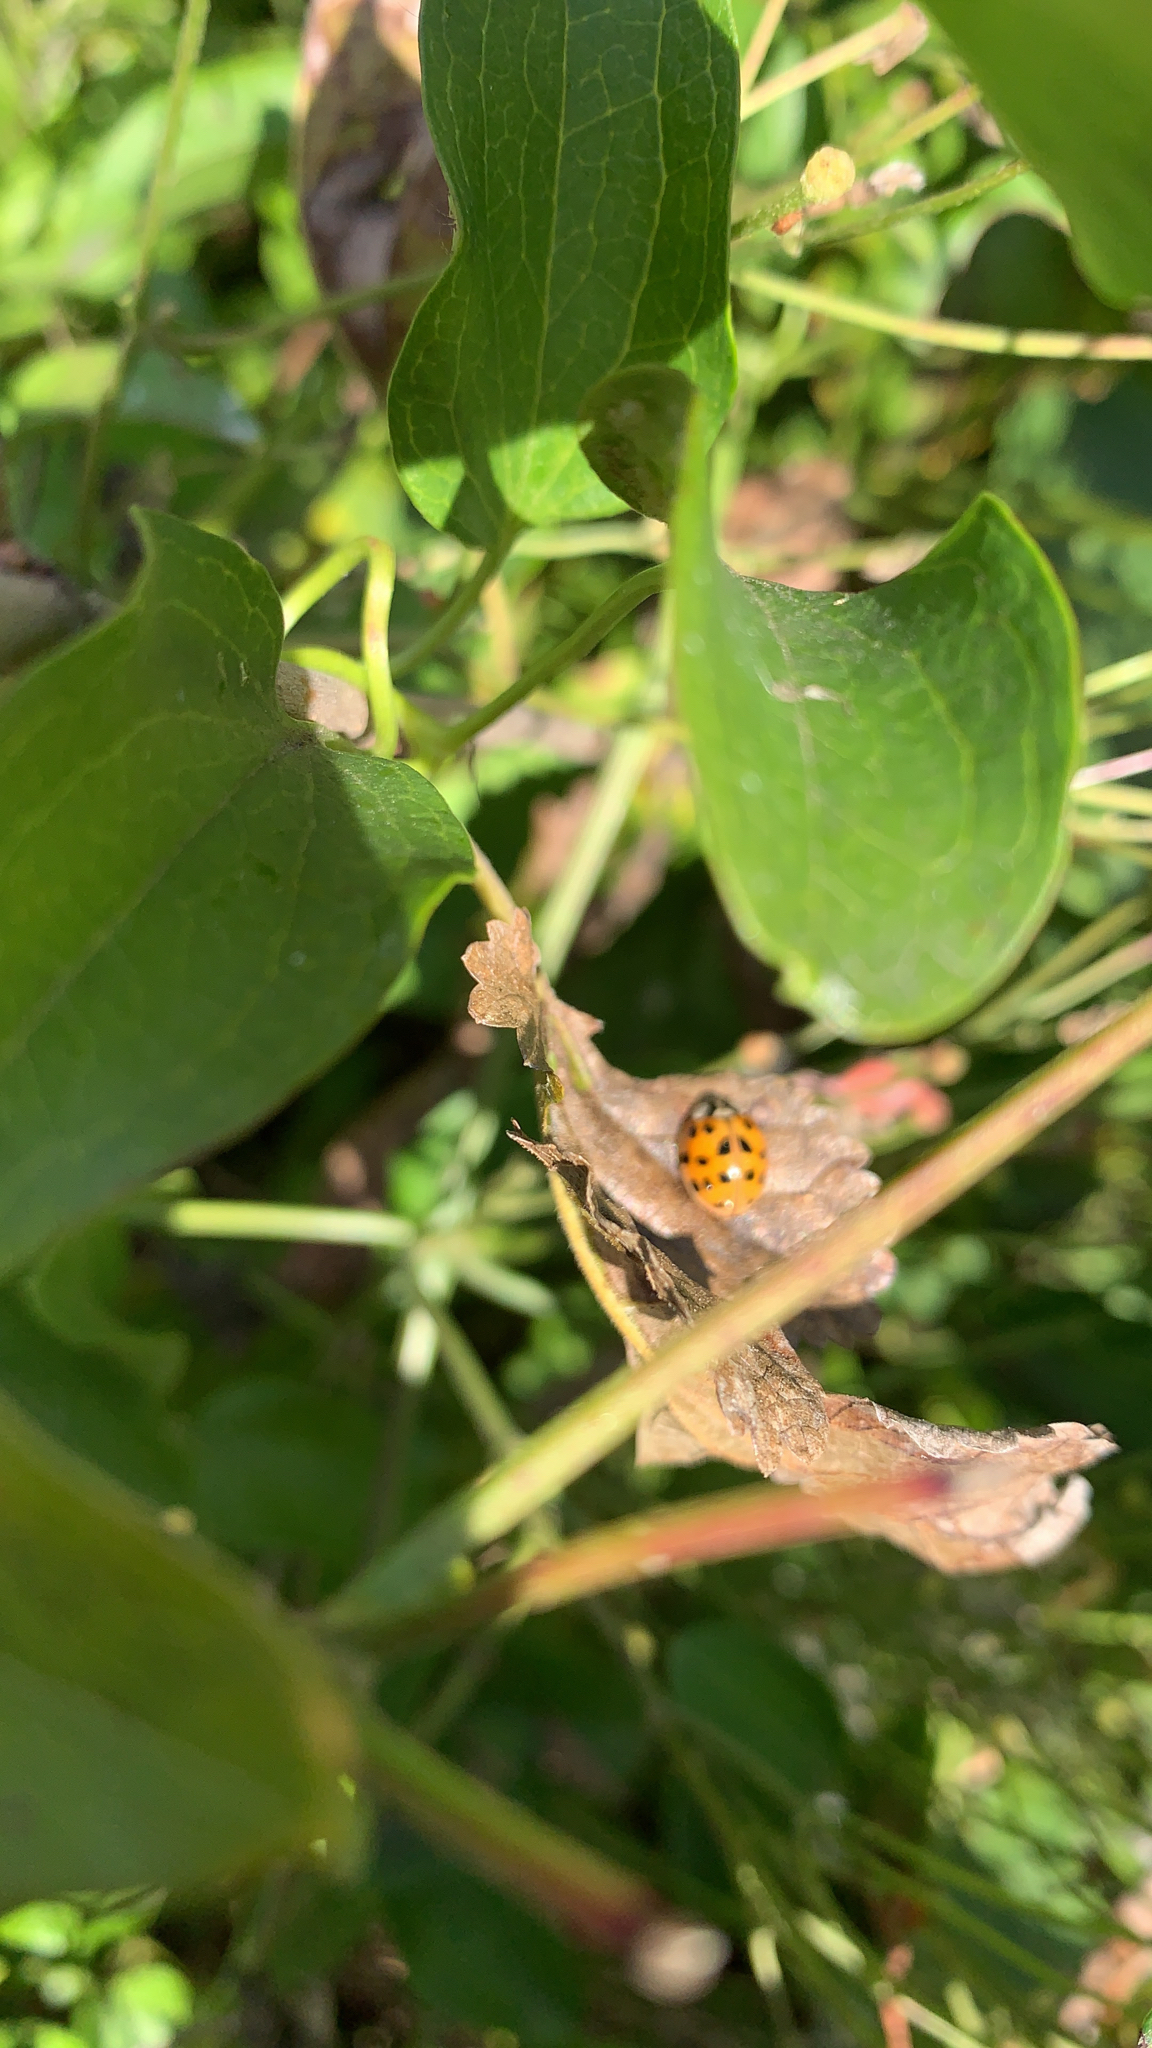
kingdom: Animalia
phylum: Arthropoda
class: Insecta
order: Coleoptera
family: Coccinellidae
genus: Harmonia
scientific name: Harmonia axyridis
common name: Harlequin ladybird
